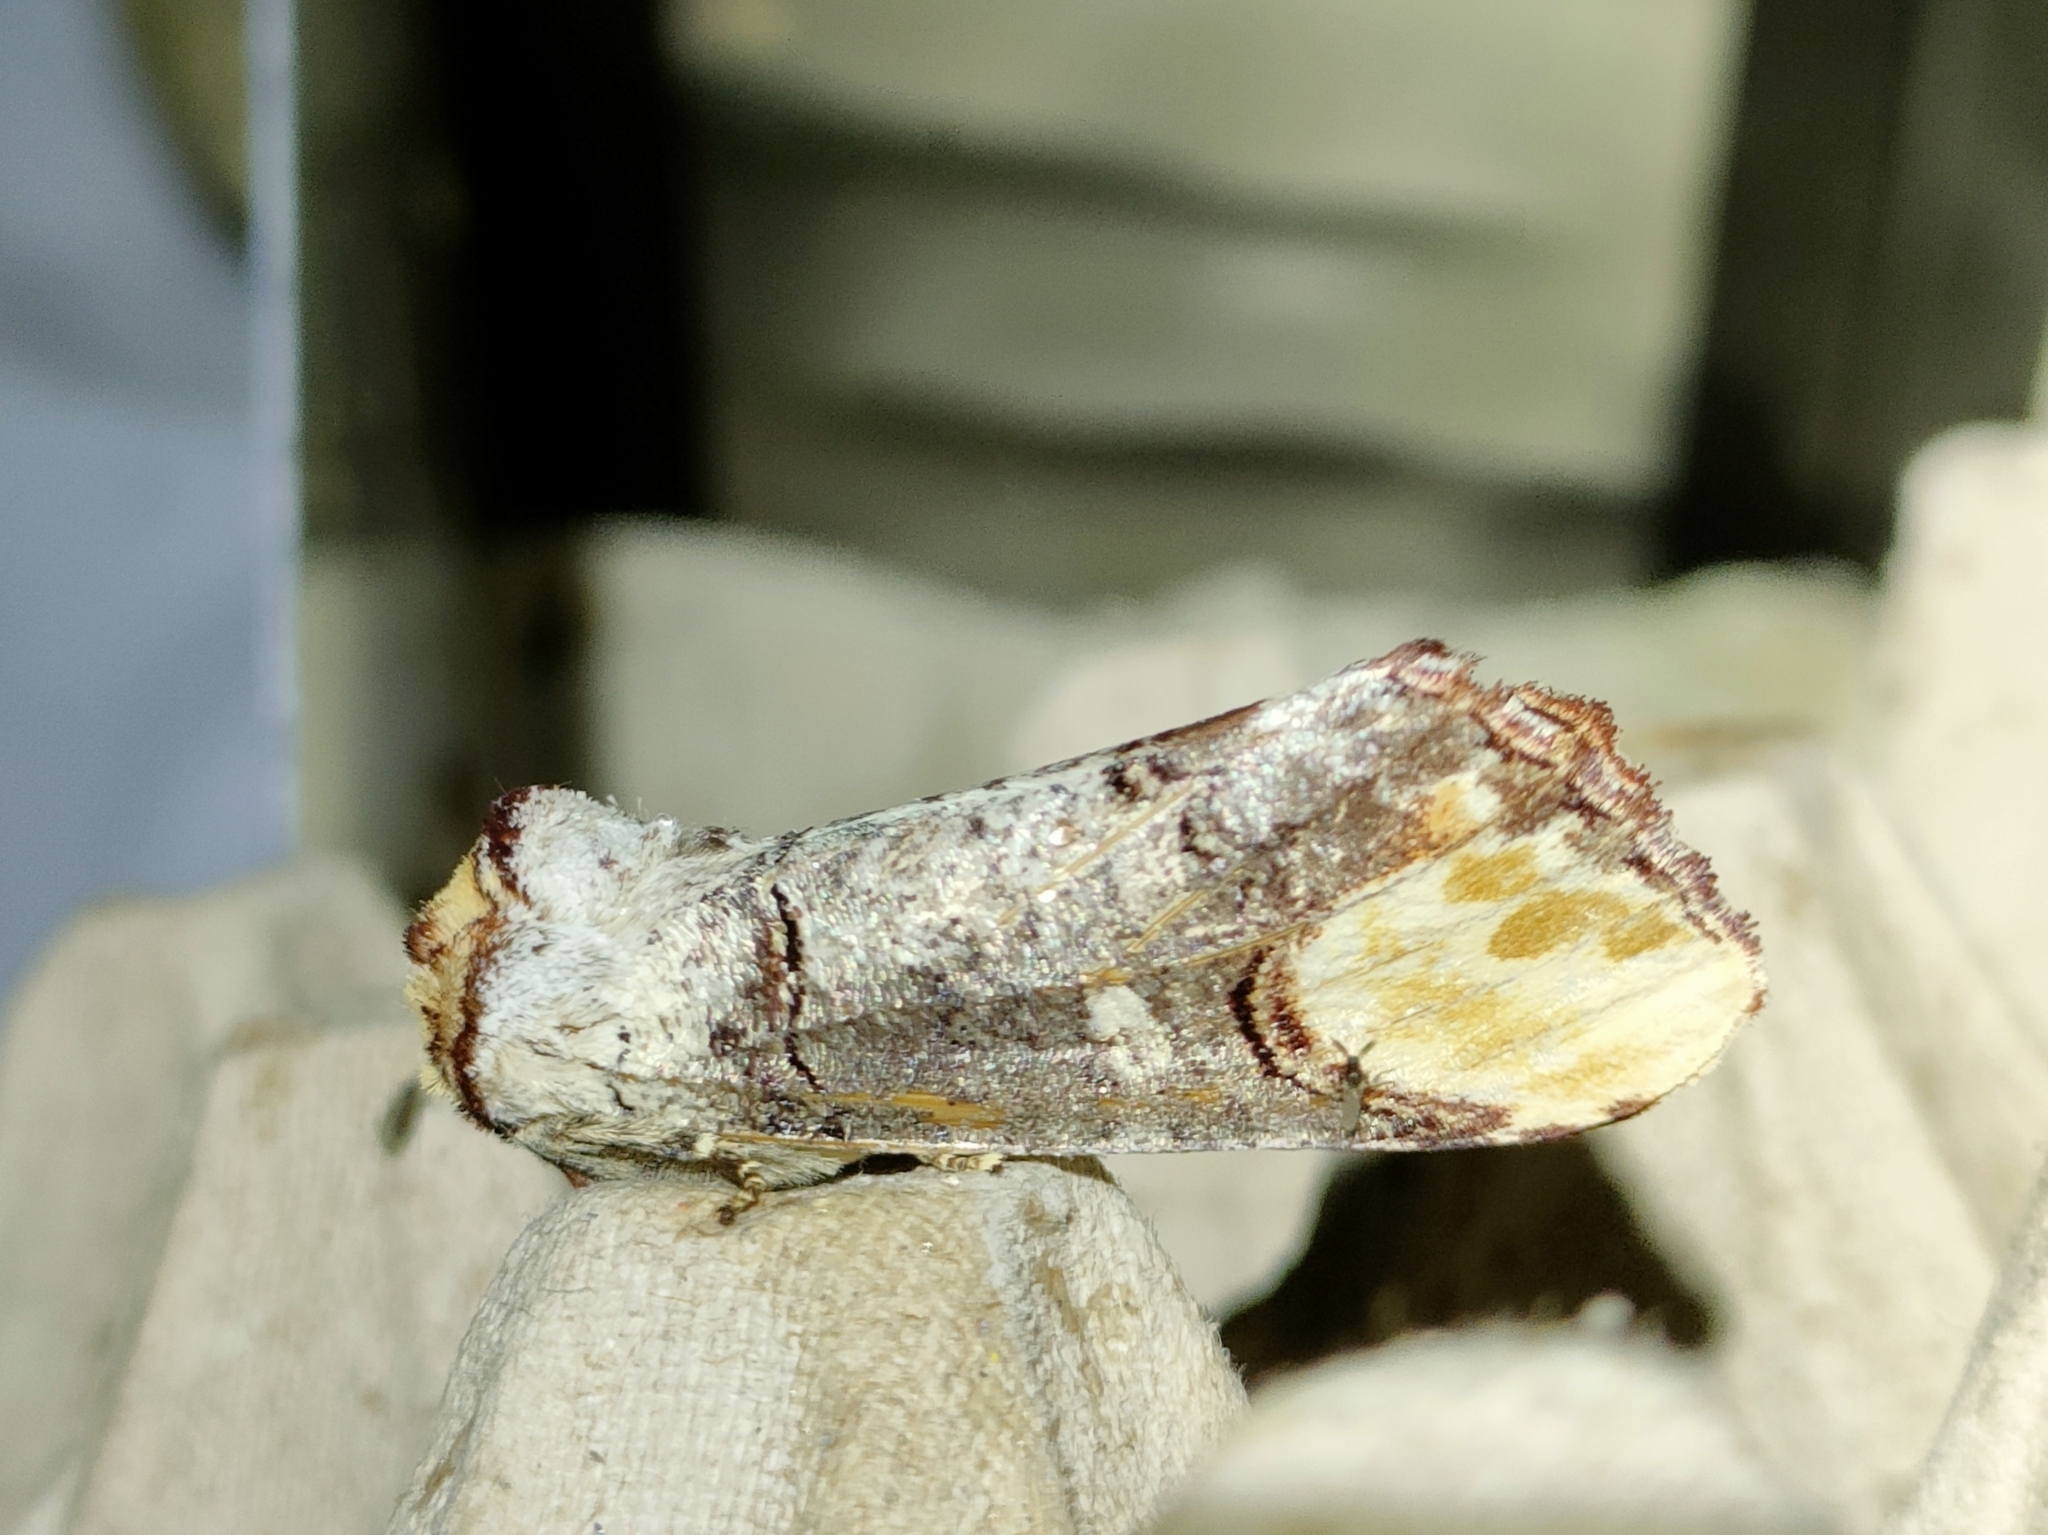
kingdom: Animalia
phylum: Arthropoda
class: Insecta
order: Lepidoptera
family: Notodontidae
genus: Phalera
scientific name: Phalera bucephala
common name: Buff-tip
